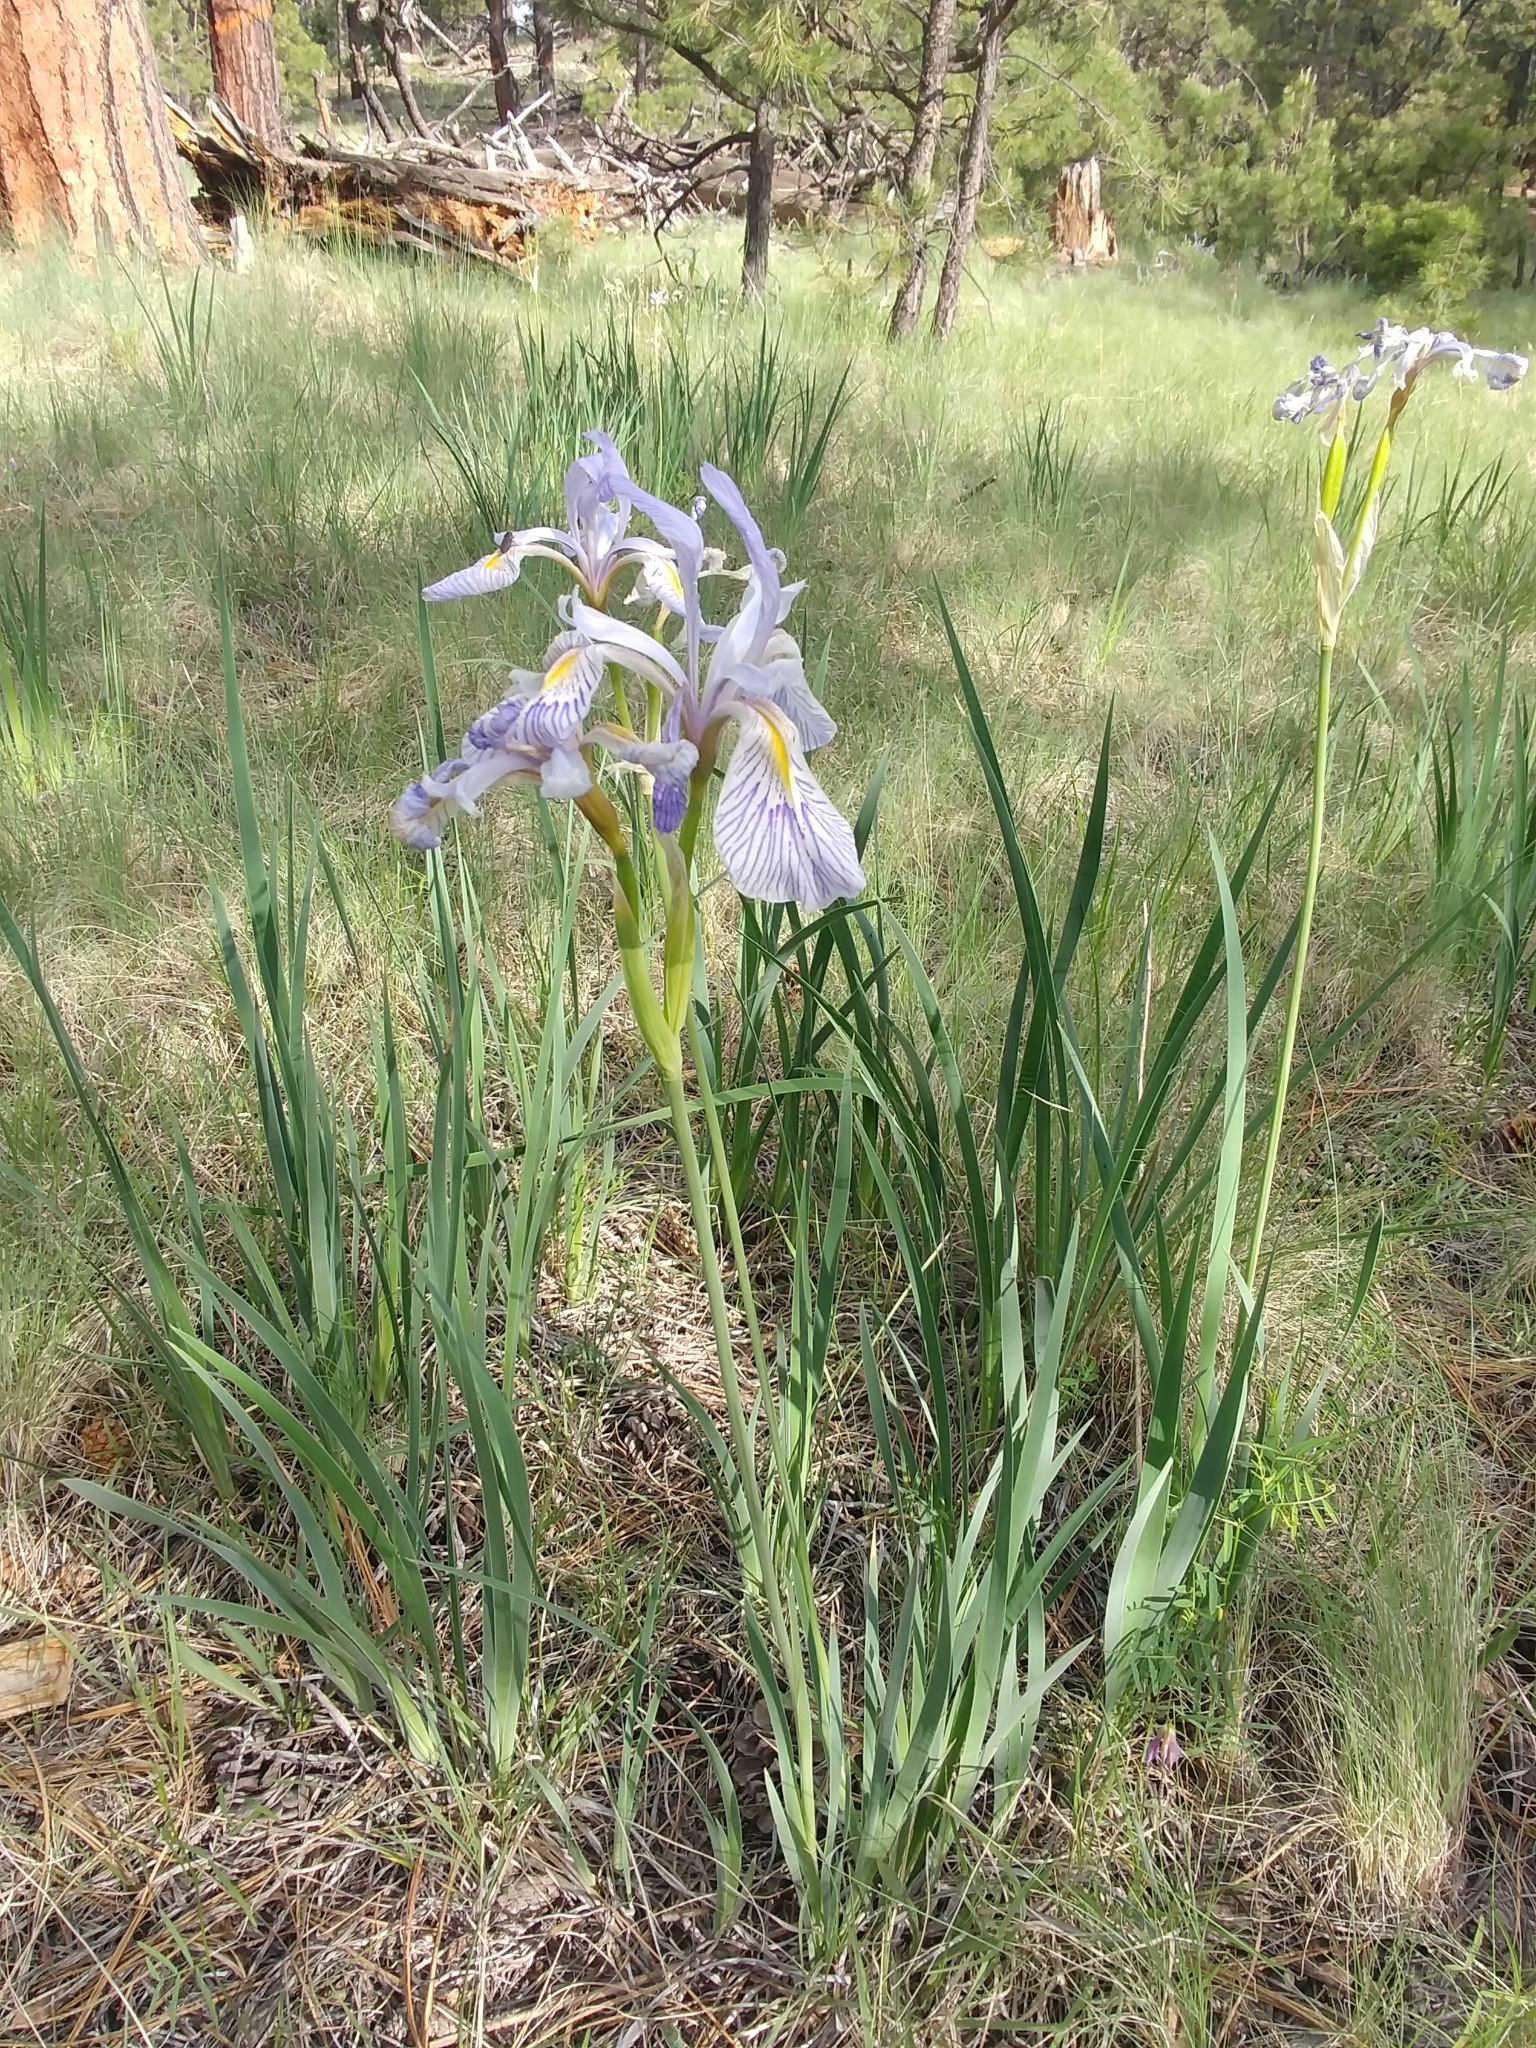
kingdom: Plantae
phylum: Tracheophyta
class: Liliopsida
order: Asparagales
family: Iridaceae
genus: Iris
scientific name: Iris missouriensis
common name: Rocky mountain iris
